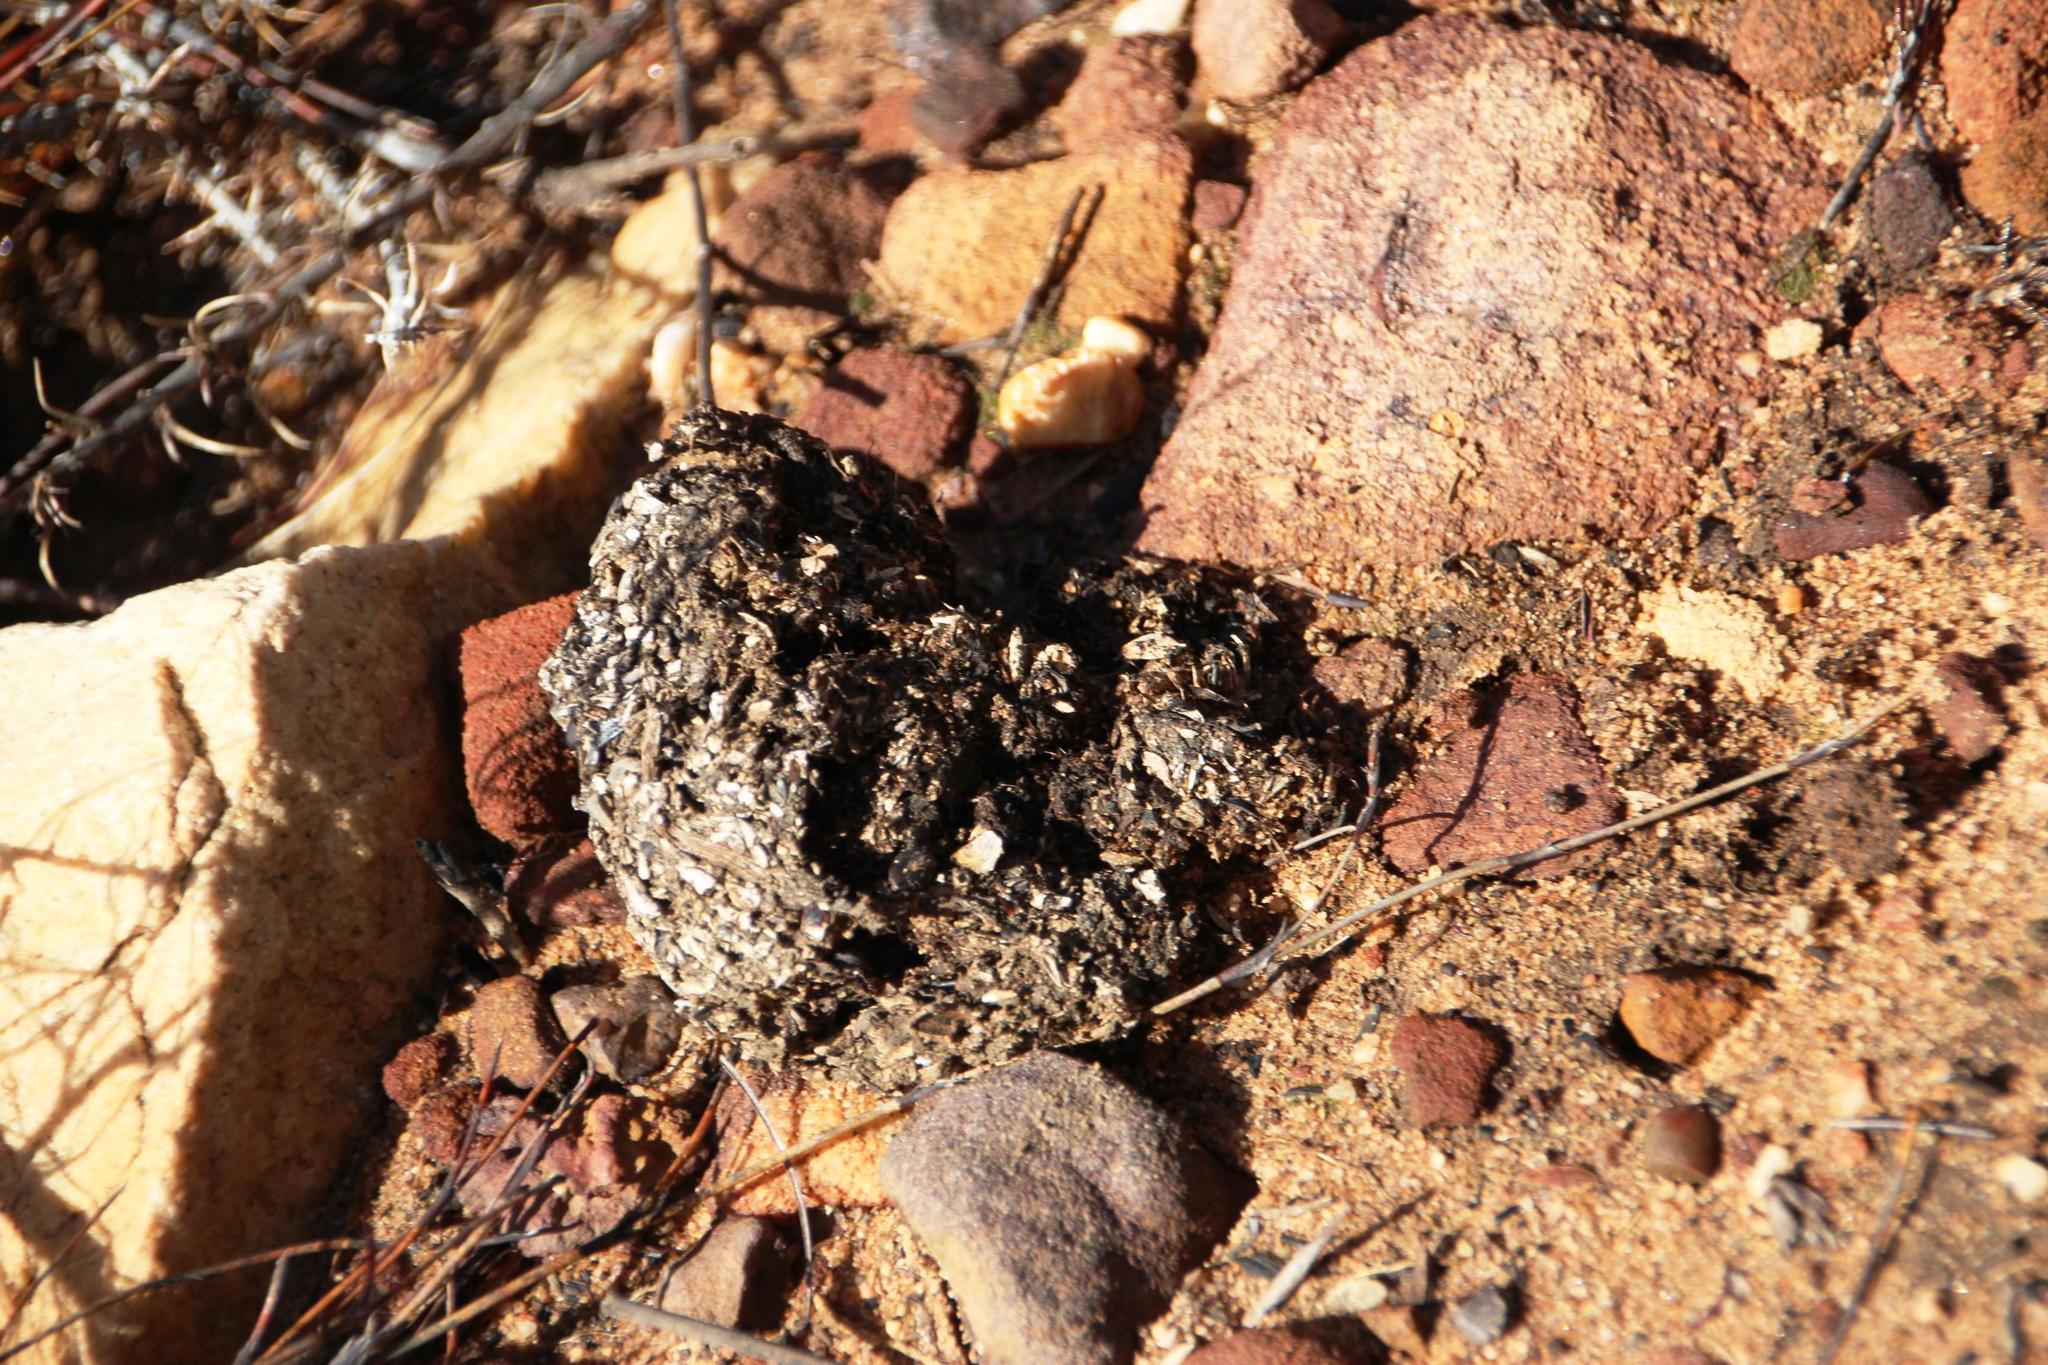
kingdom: Animalia
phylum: Chordata
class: Mammalia
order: Primates
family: Cercopithecidae
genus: Papio
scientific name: Papio ursinus
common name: Chacma baboon
